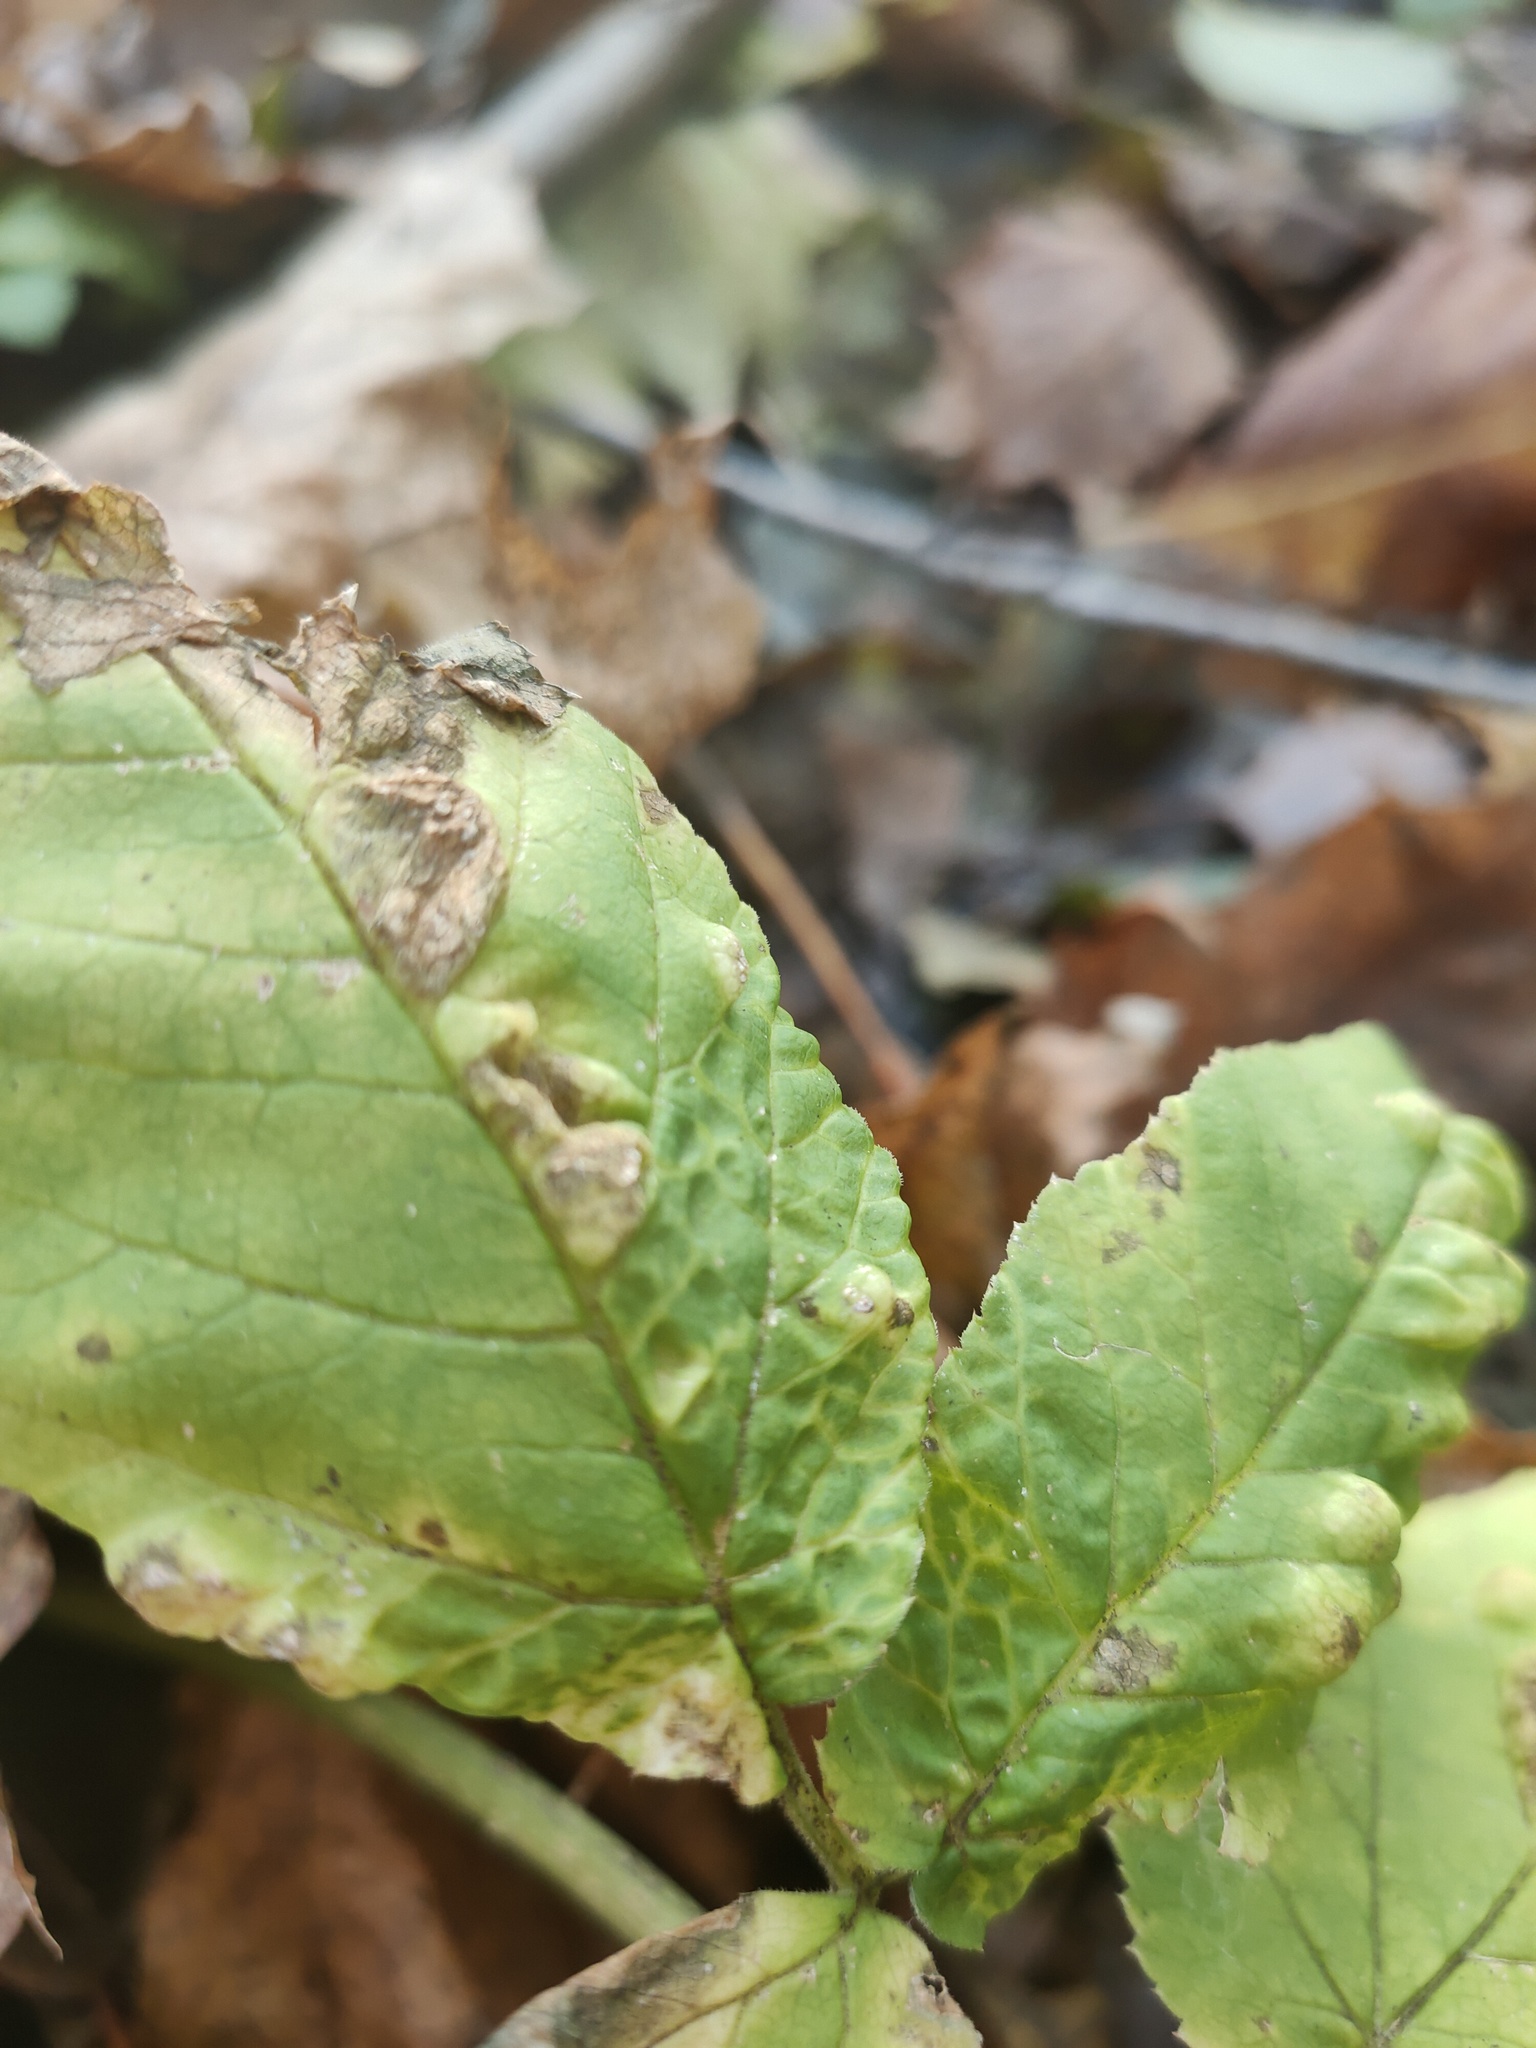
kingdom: Animalia
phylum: Arthropoda
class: Insecta
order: Hemiptera
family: Triozidae
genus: Trioza
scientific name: Trioza flavipennis
